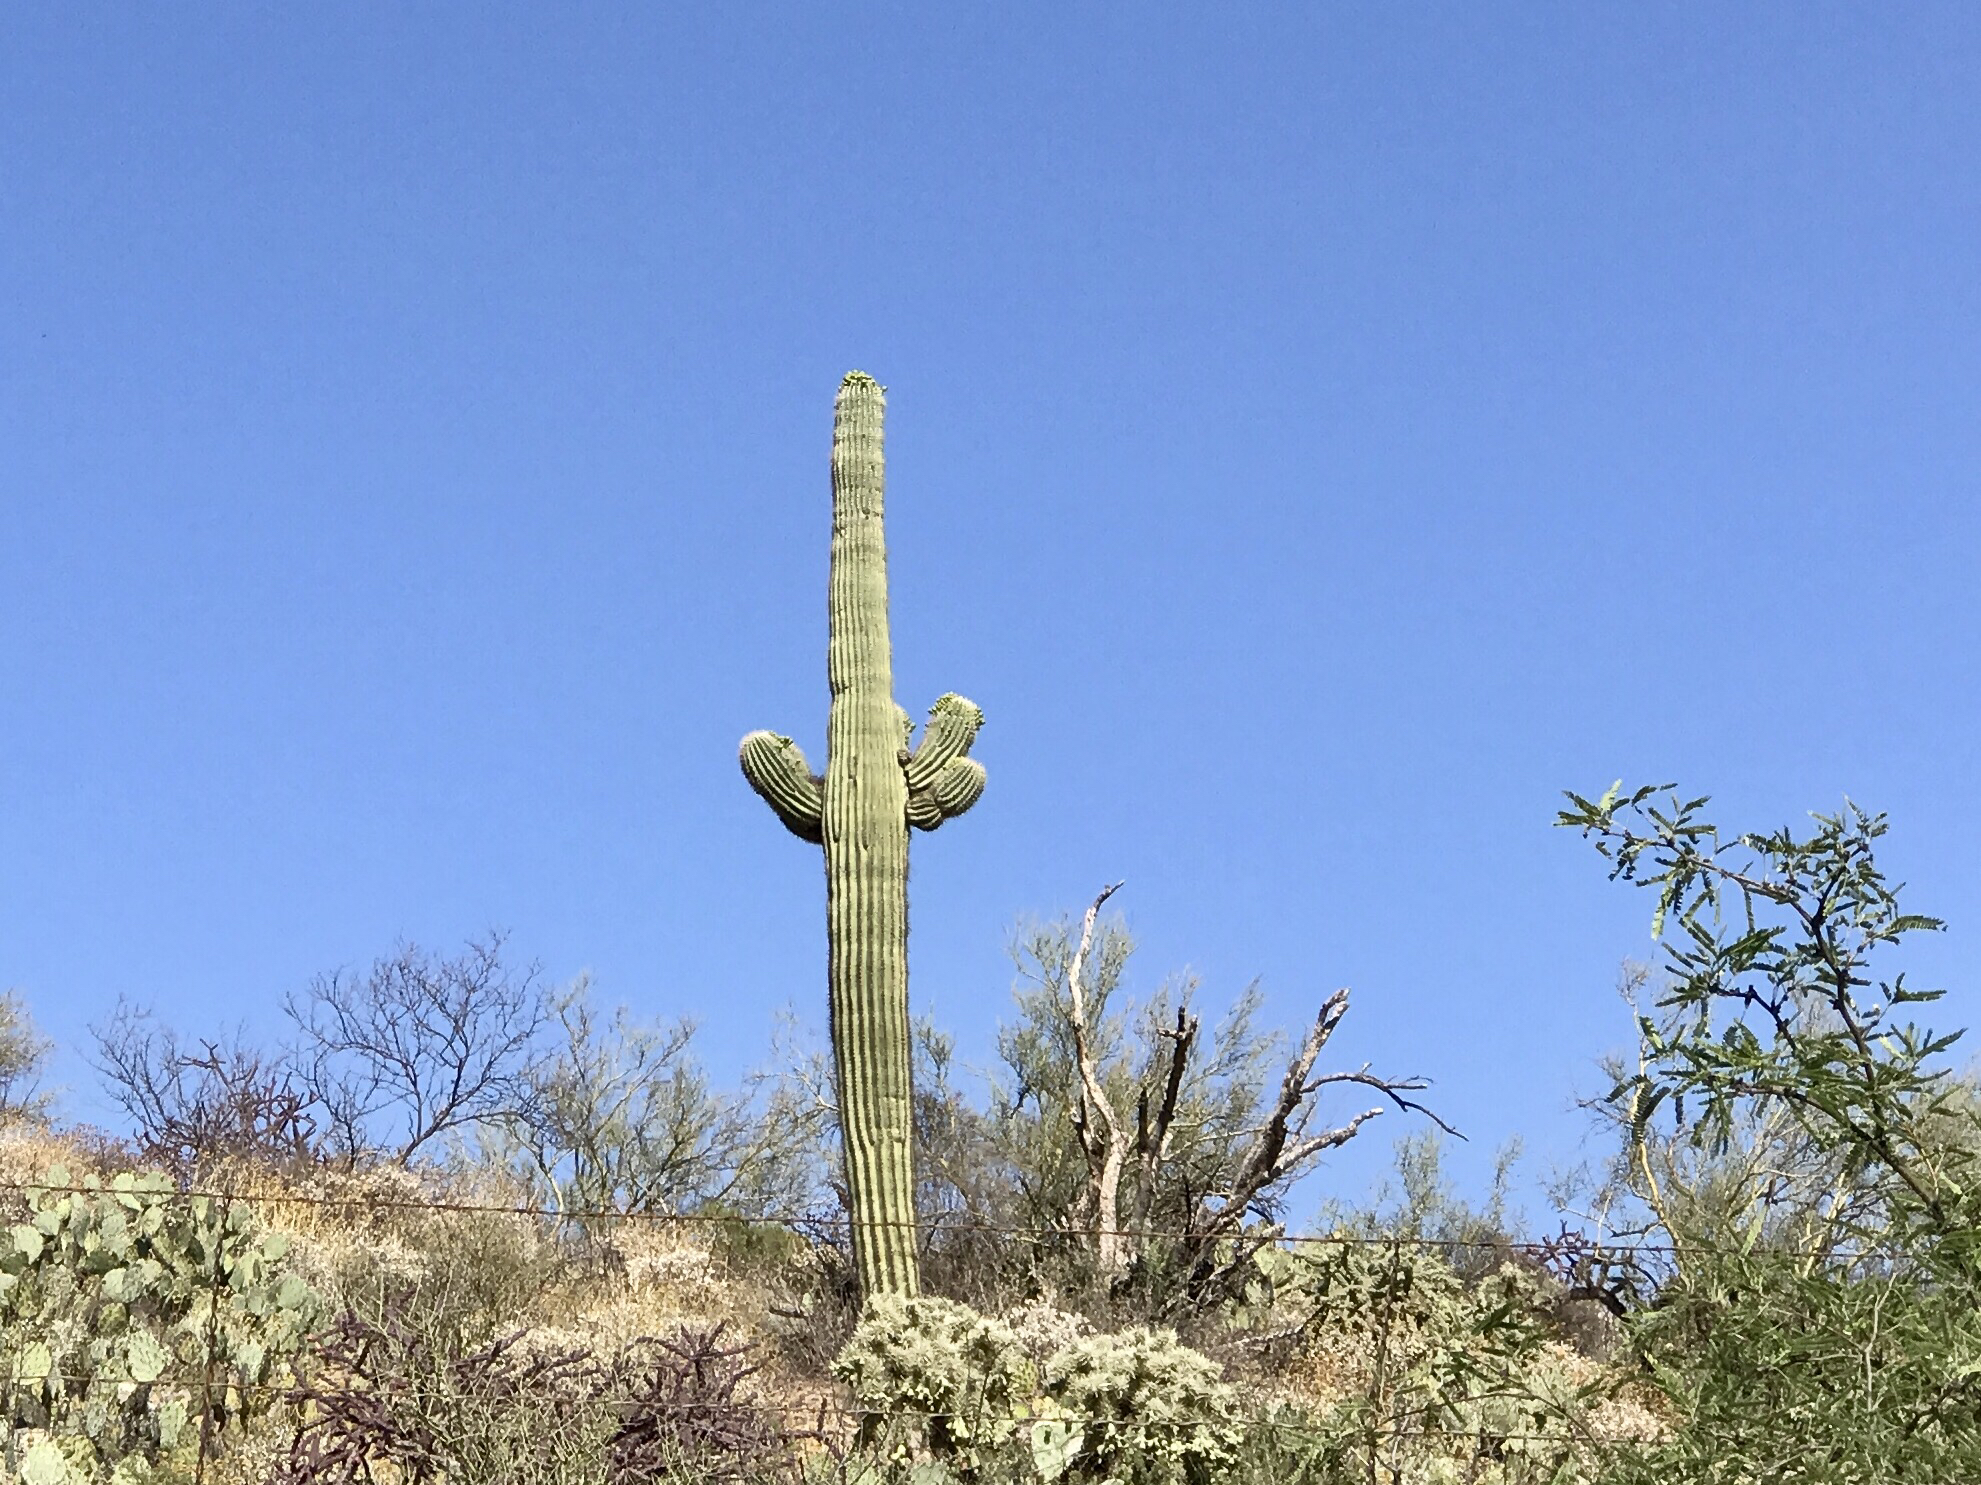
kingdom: Plantae
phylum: Tracheophyta
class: Magnoliopsida
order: Caryophyllales
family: Cactaceae
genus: Carnegiea
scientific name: Carnegiea gigantea
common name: Saguaro
